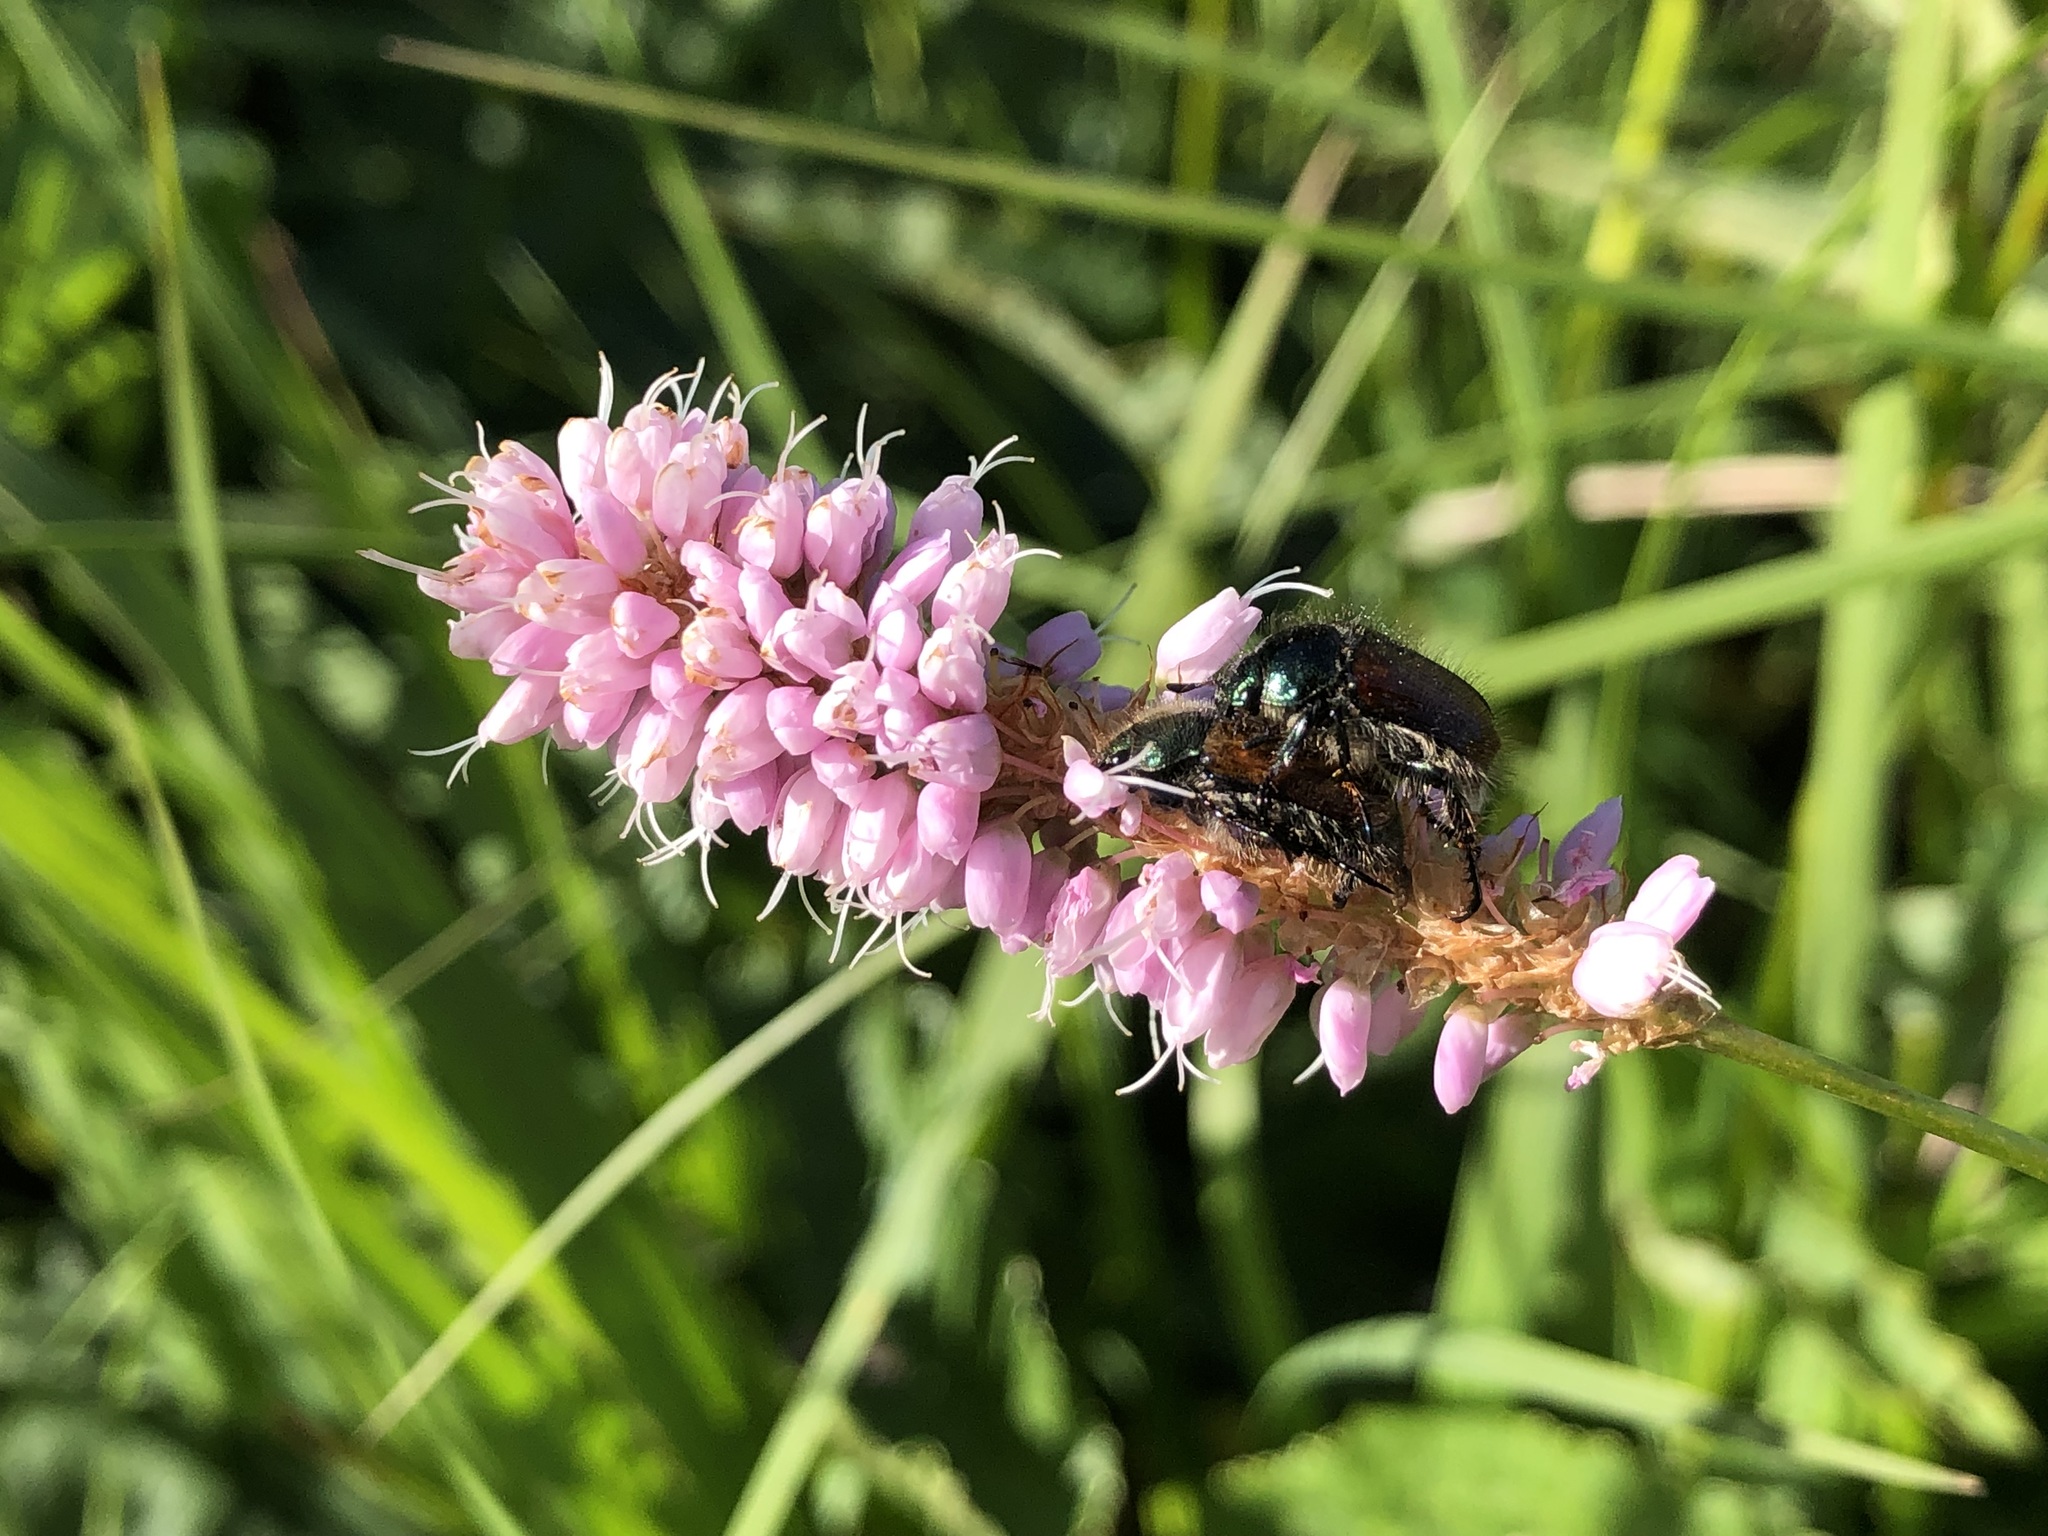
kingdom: Plantae
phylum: Tracheophyta
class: Magnoliopsida
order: Caryophyllales
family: Polygonaceae
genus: Bistorta
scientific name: Bistorta officinalis
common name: Common bistort
